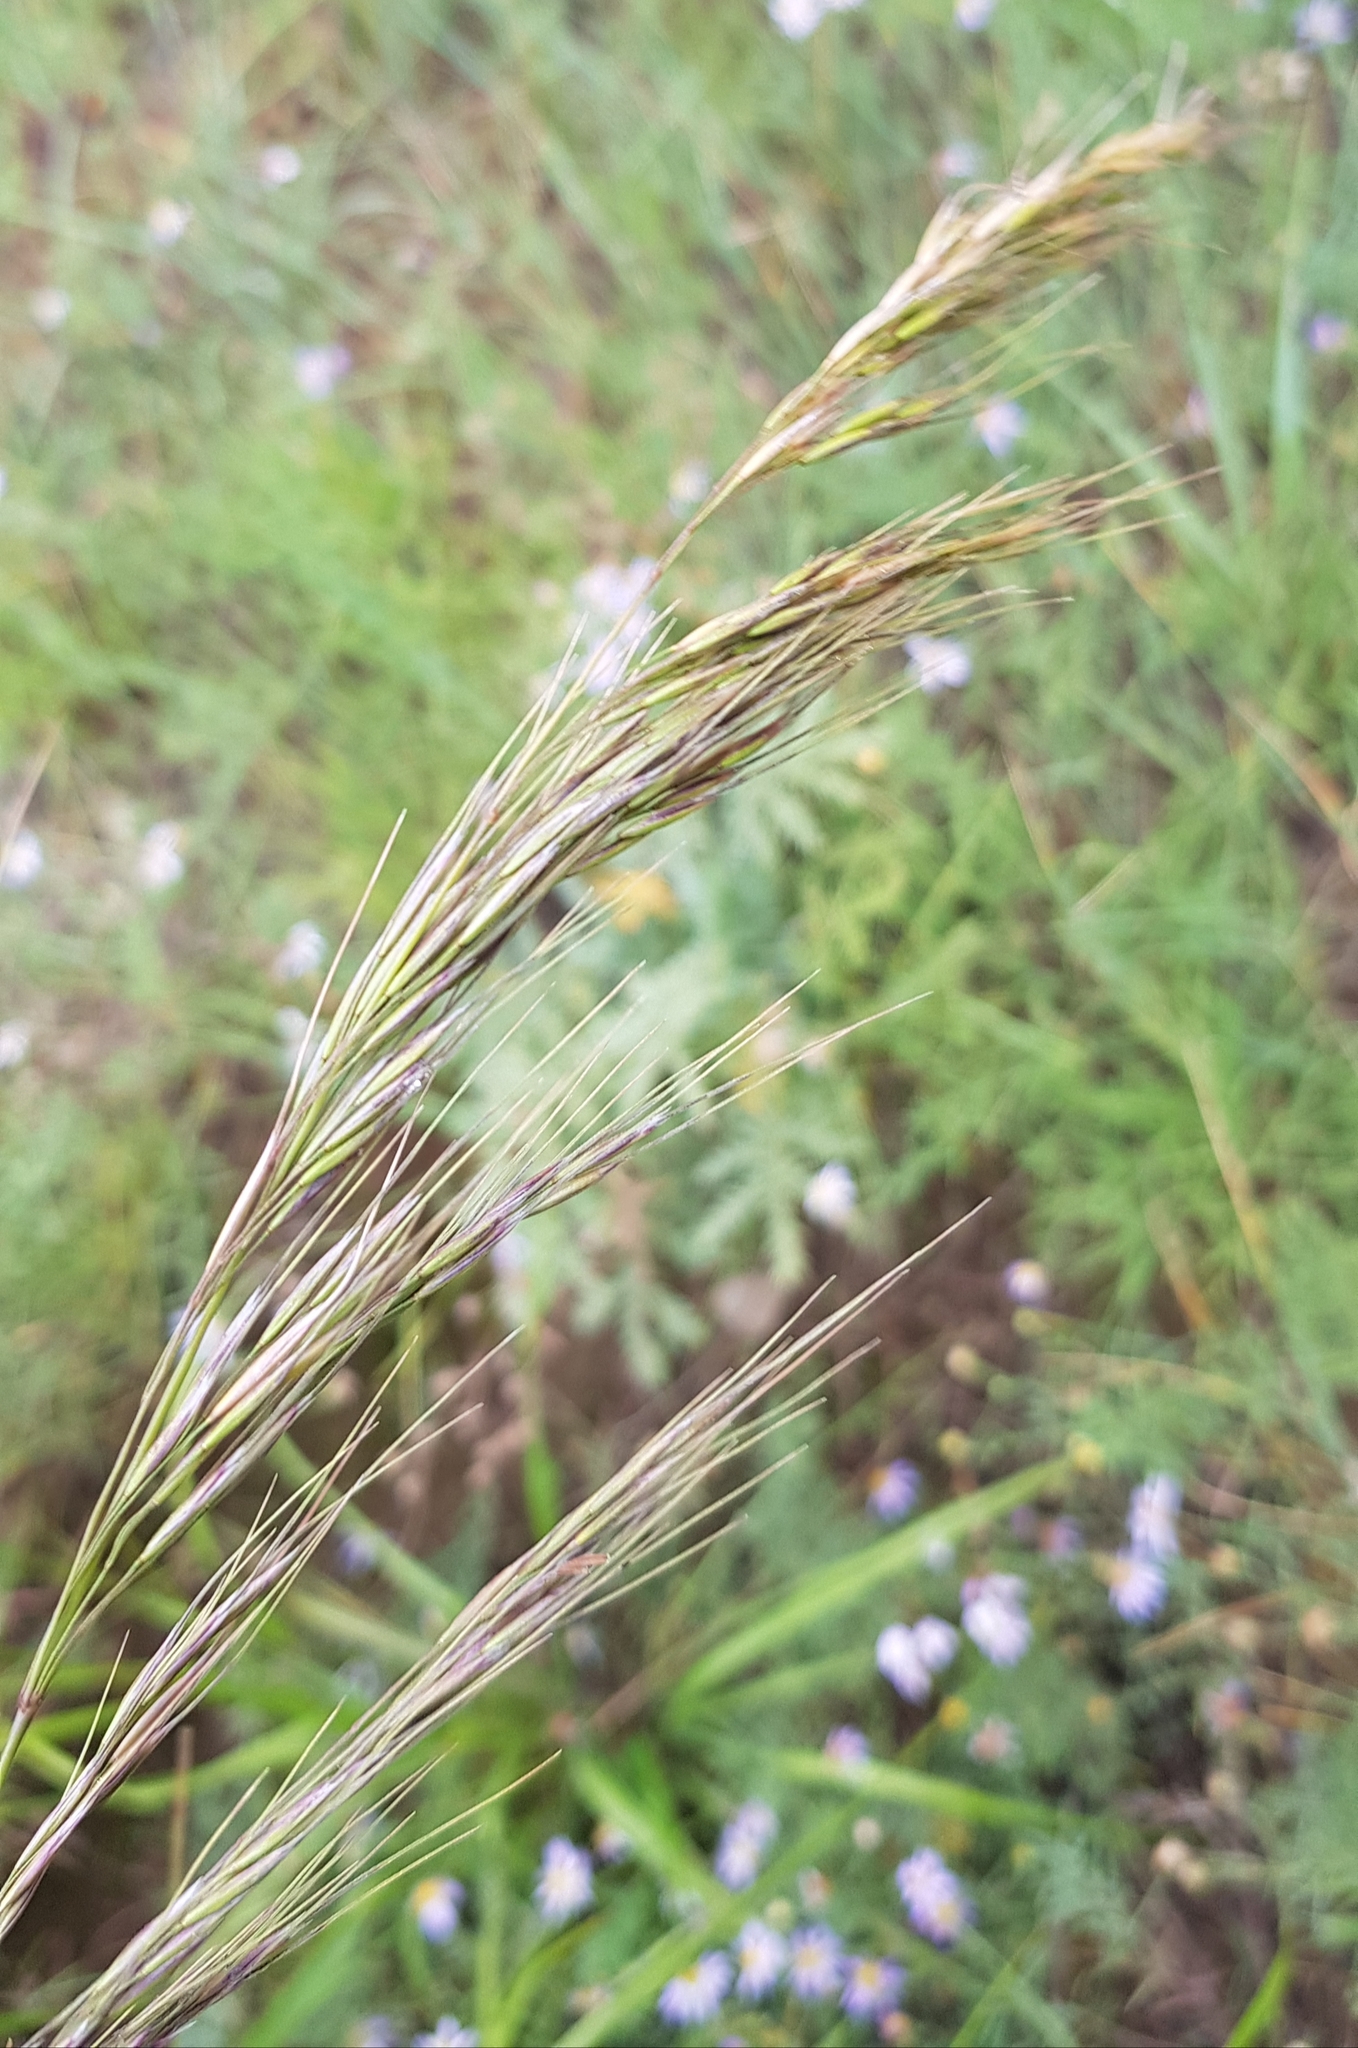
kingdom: Plantae
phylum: Tracheophyta
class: Liliopsida
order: Poales
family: Poaceae
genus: Achnatherum
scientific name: Achnatherum sibiricum
